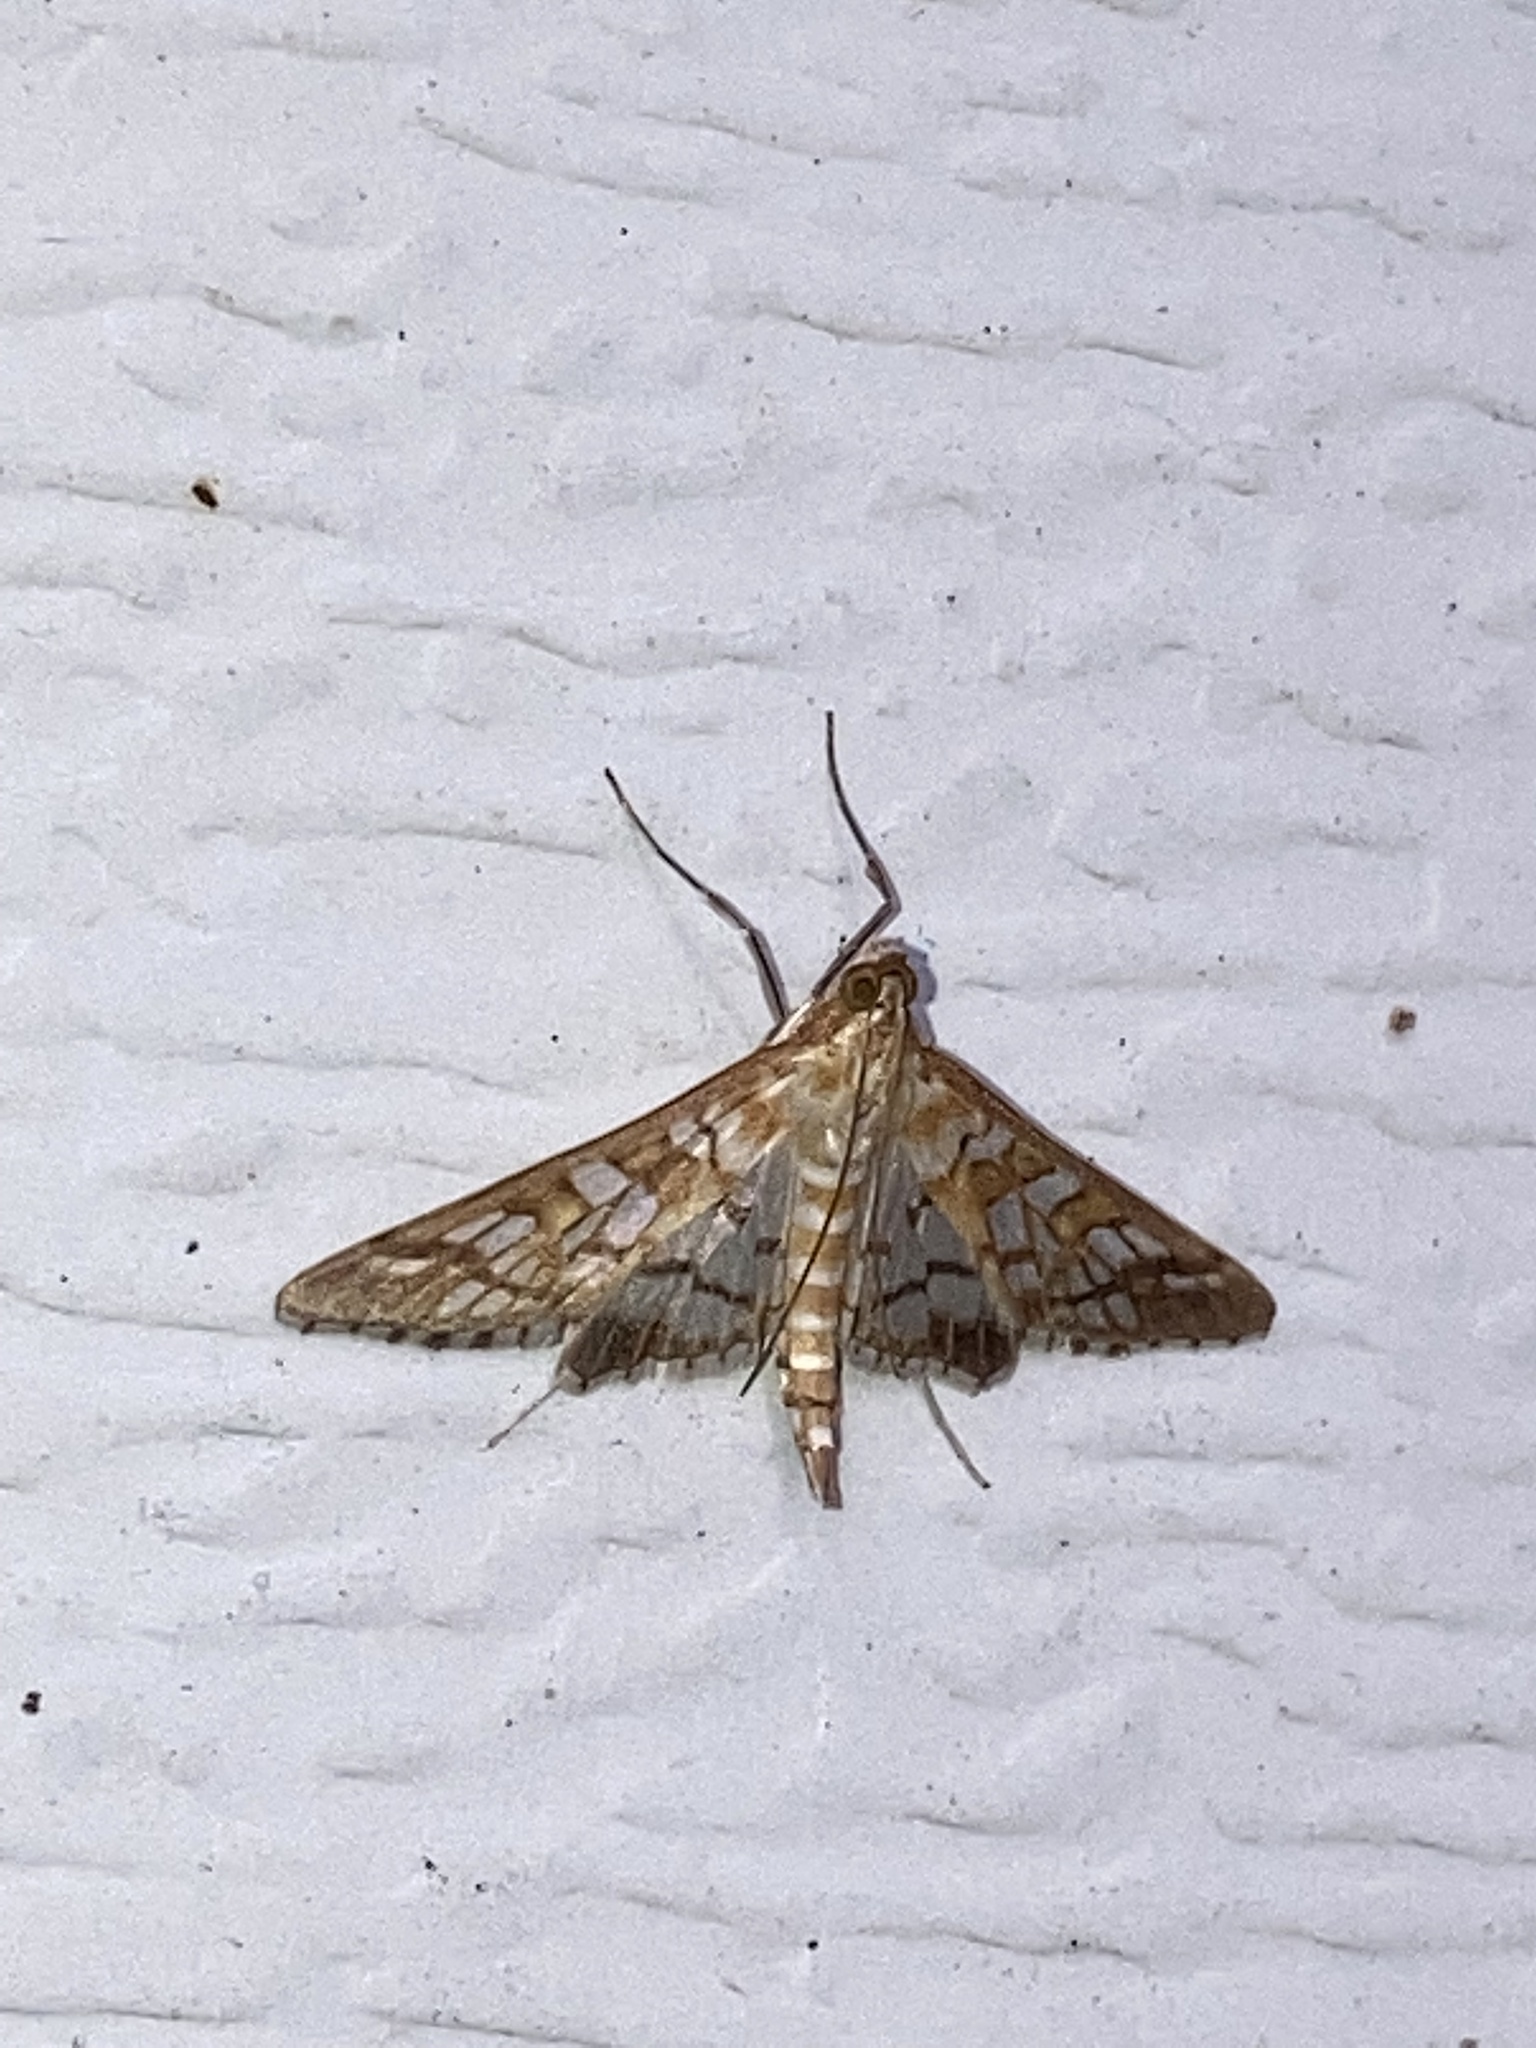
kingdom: Animalia
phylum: Arthropoda
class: Insecta
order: Lepidoptera
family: Crambidae
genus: Epipagis
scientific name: Epipagis fenestralis
